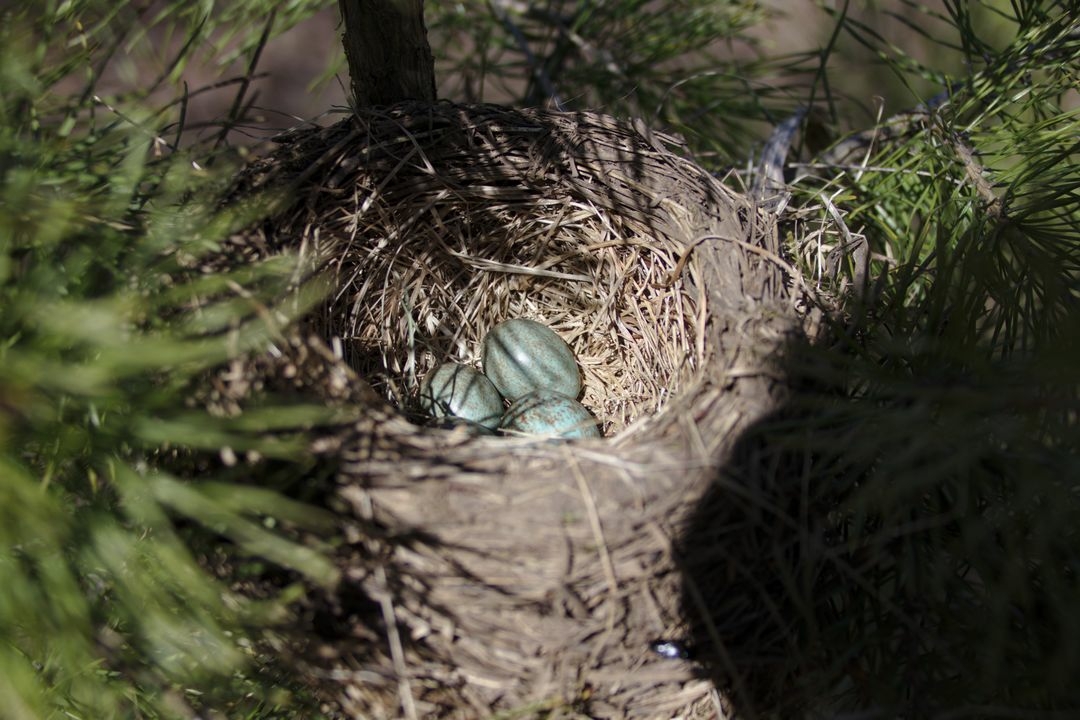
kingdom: Animalia
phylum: Chordata
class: Aves
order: Passeriformes
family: Turdidae
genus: Turdus
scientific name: Turdus pilaris
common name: Fieldfare
